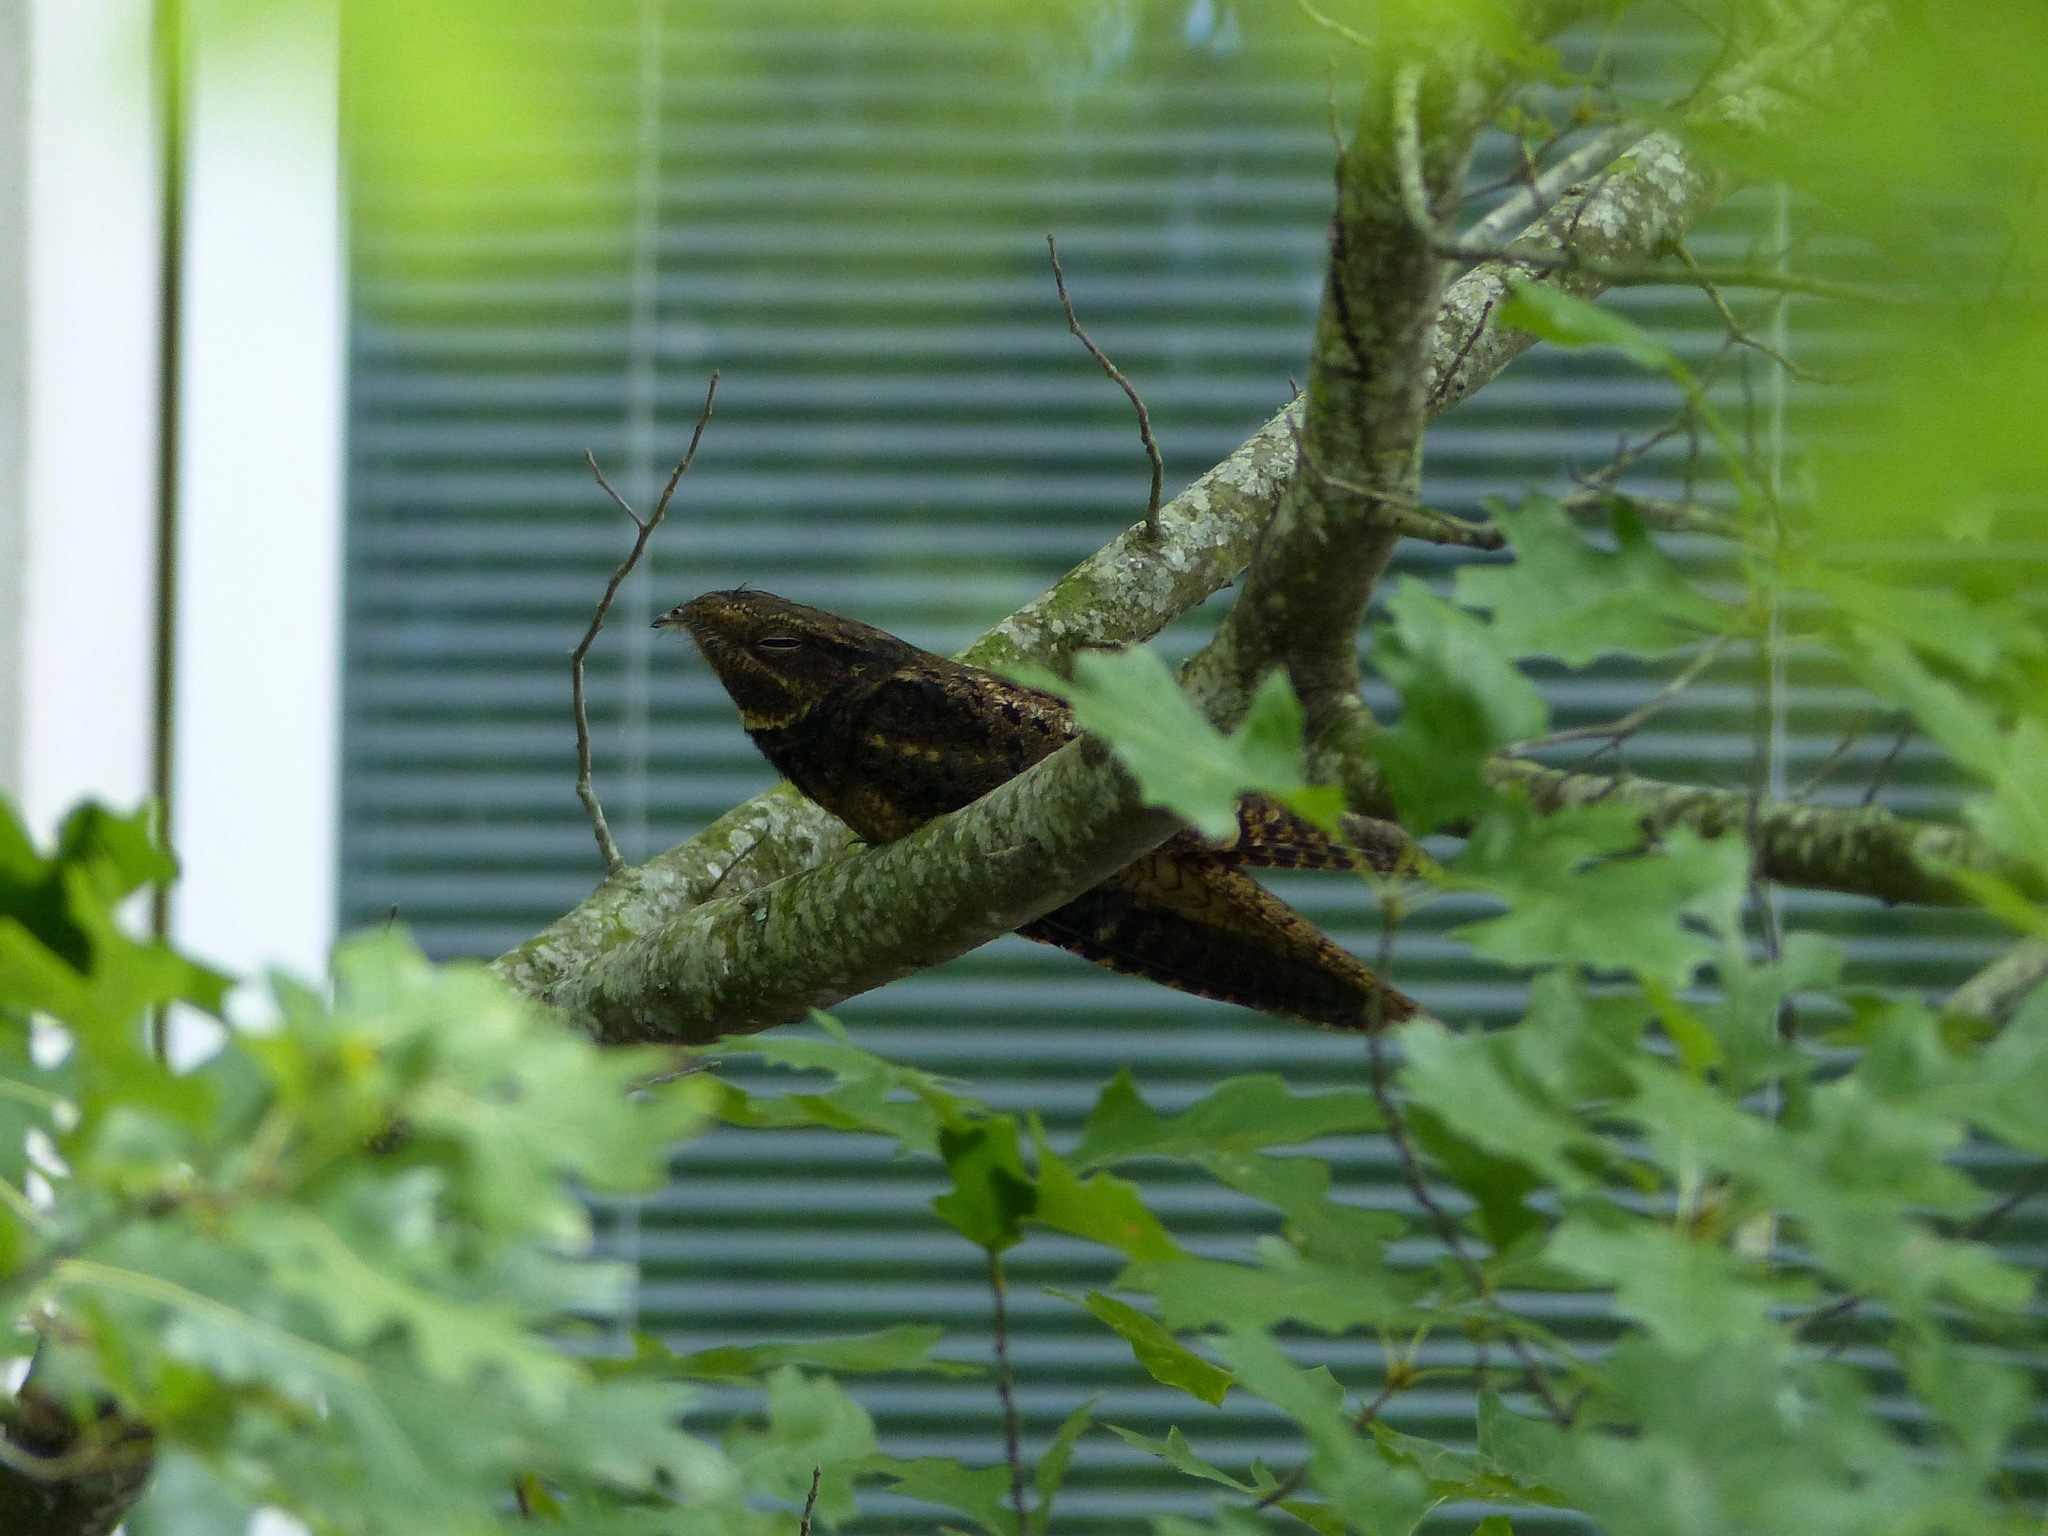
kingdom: Animalia
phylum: Chordata
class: Aves
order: Caprimulgiformes
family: Caprimulgidae
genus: Antrostomus
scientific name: Antrostomus carolinensis
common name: Chuck-will's-widow
